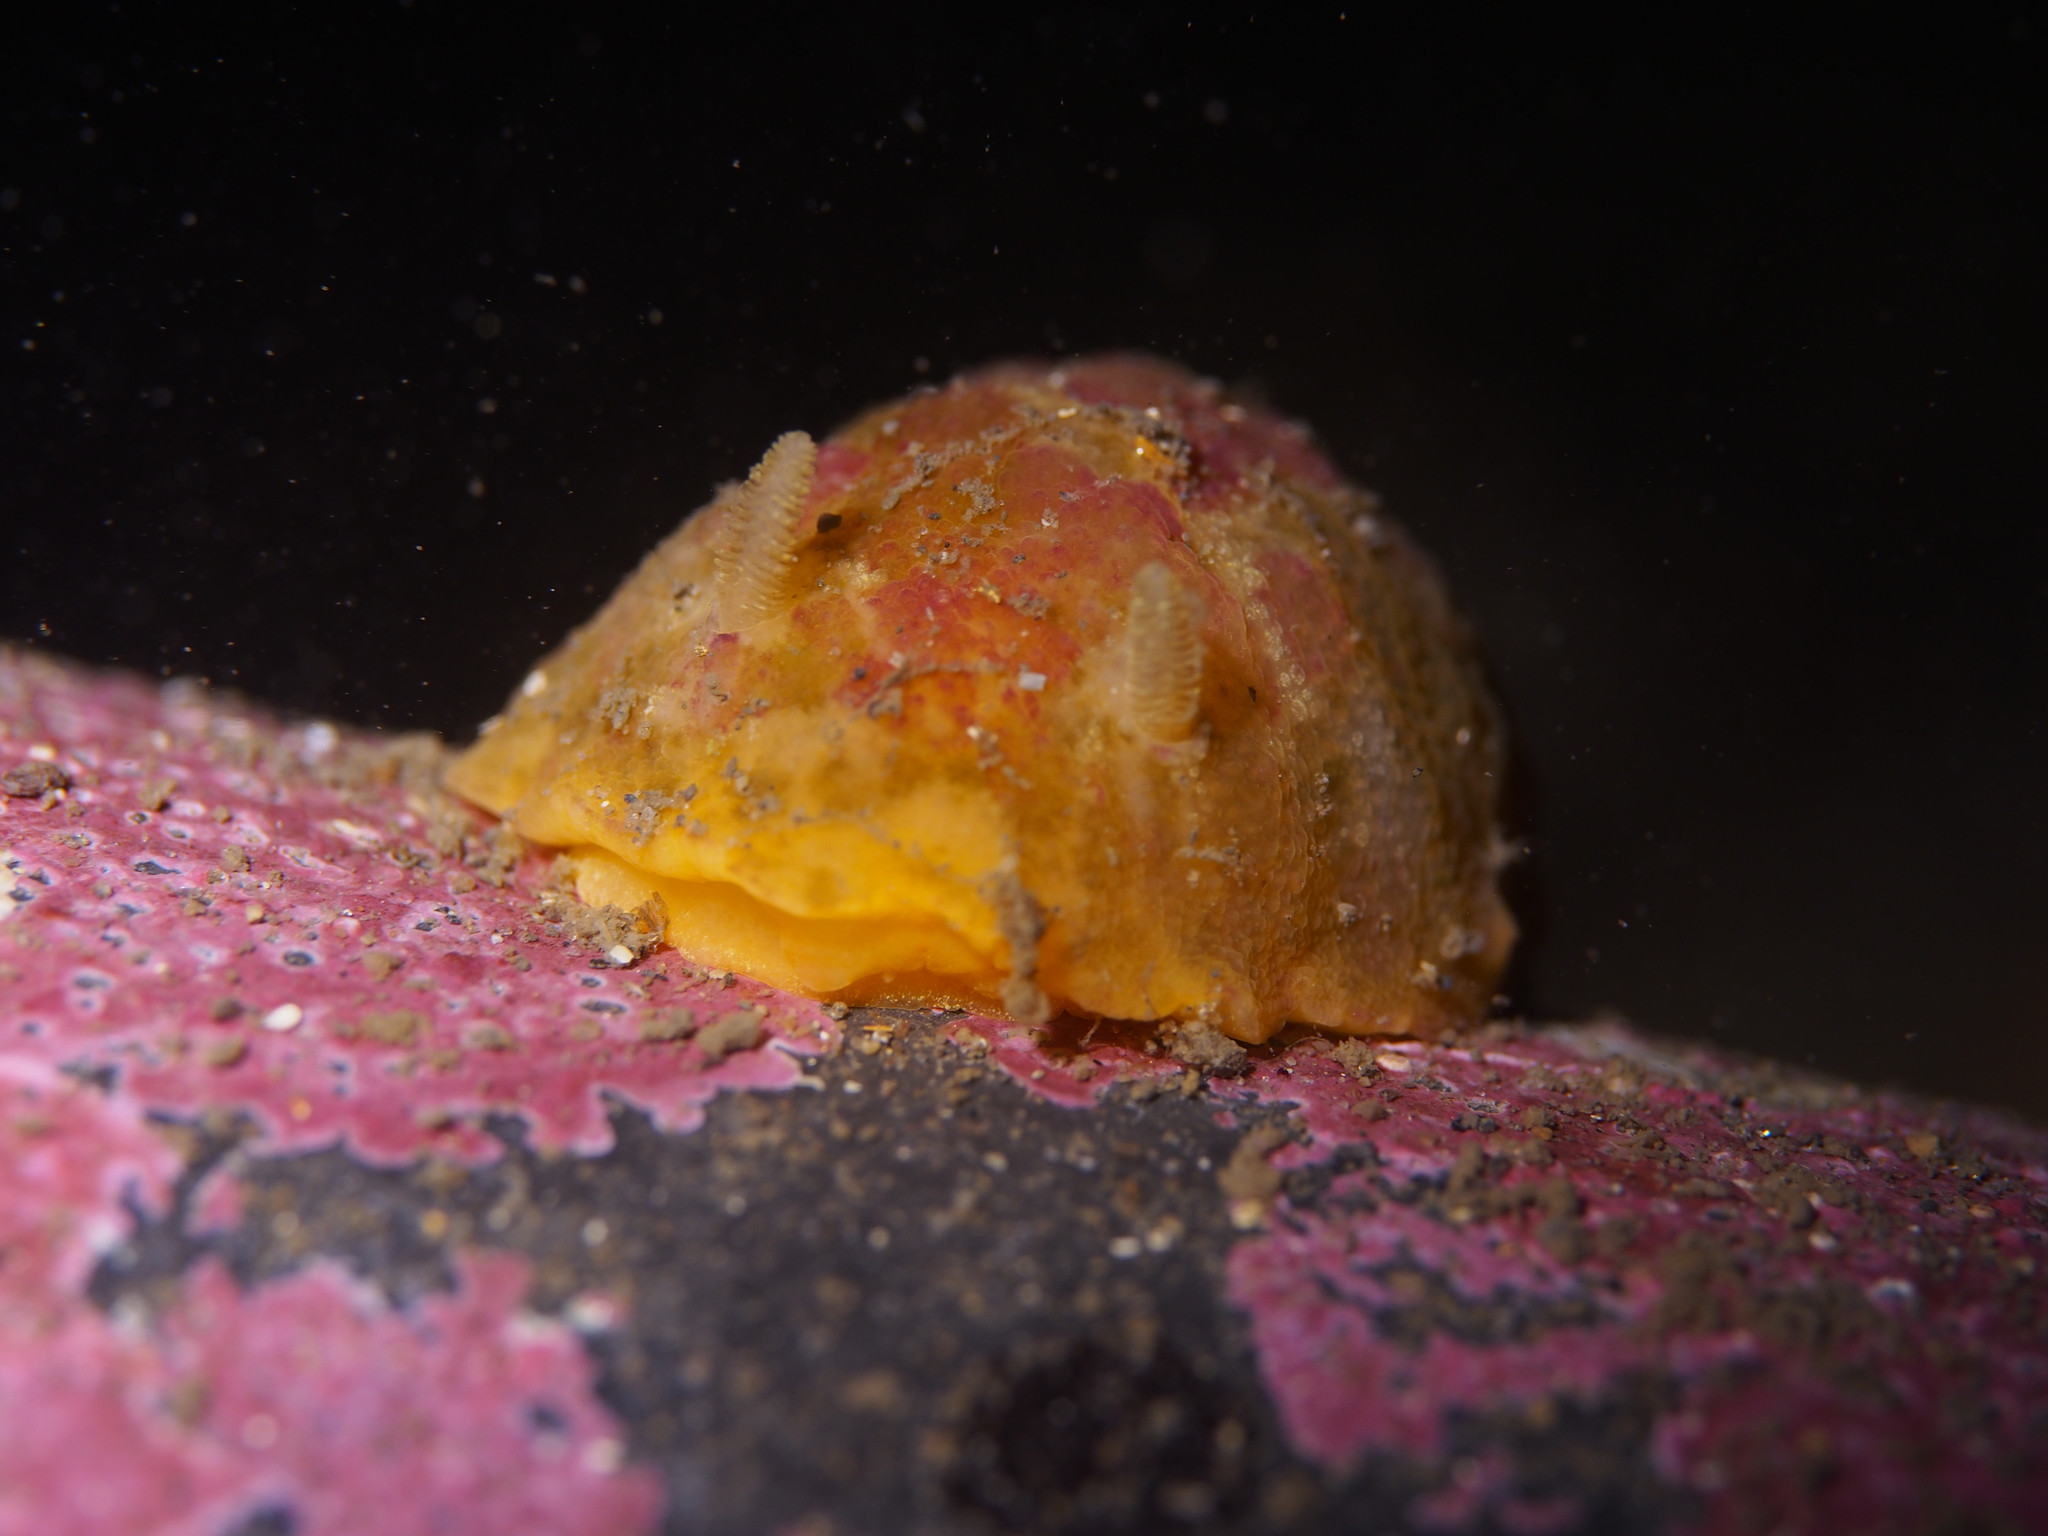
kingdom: Animalia
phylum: Mollusca
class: Gastropoda
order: Nudibranchia
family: Dorididae
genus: Doris
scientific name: Doris pseudoargus
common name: Sea lemon
